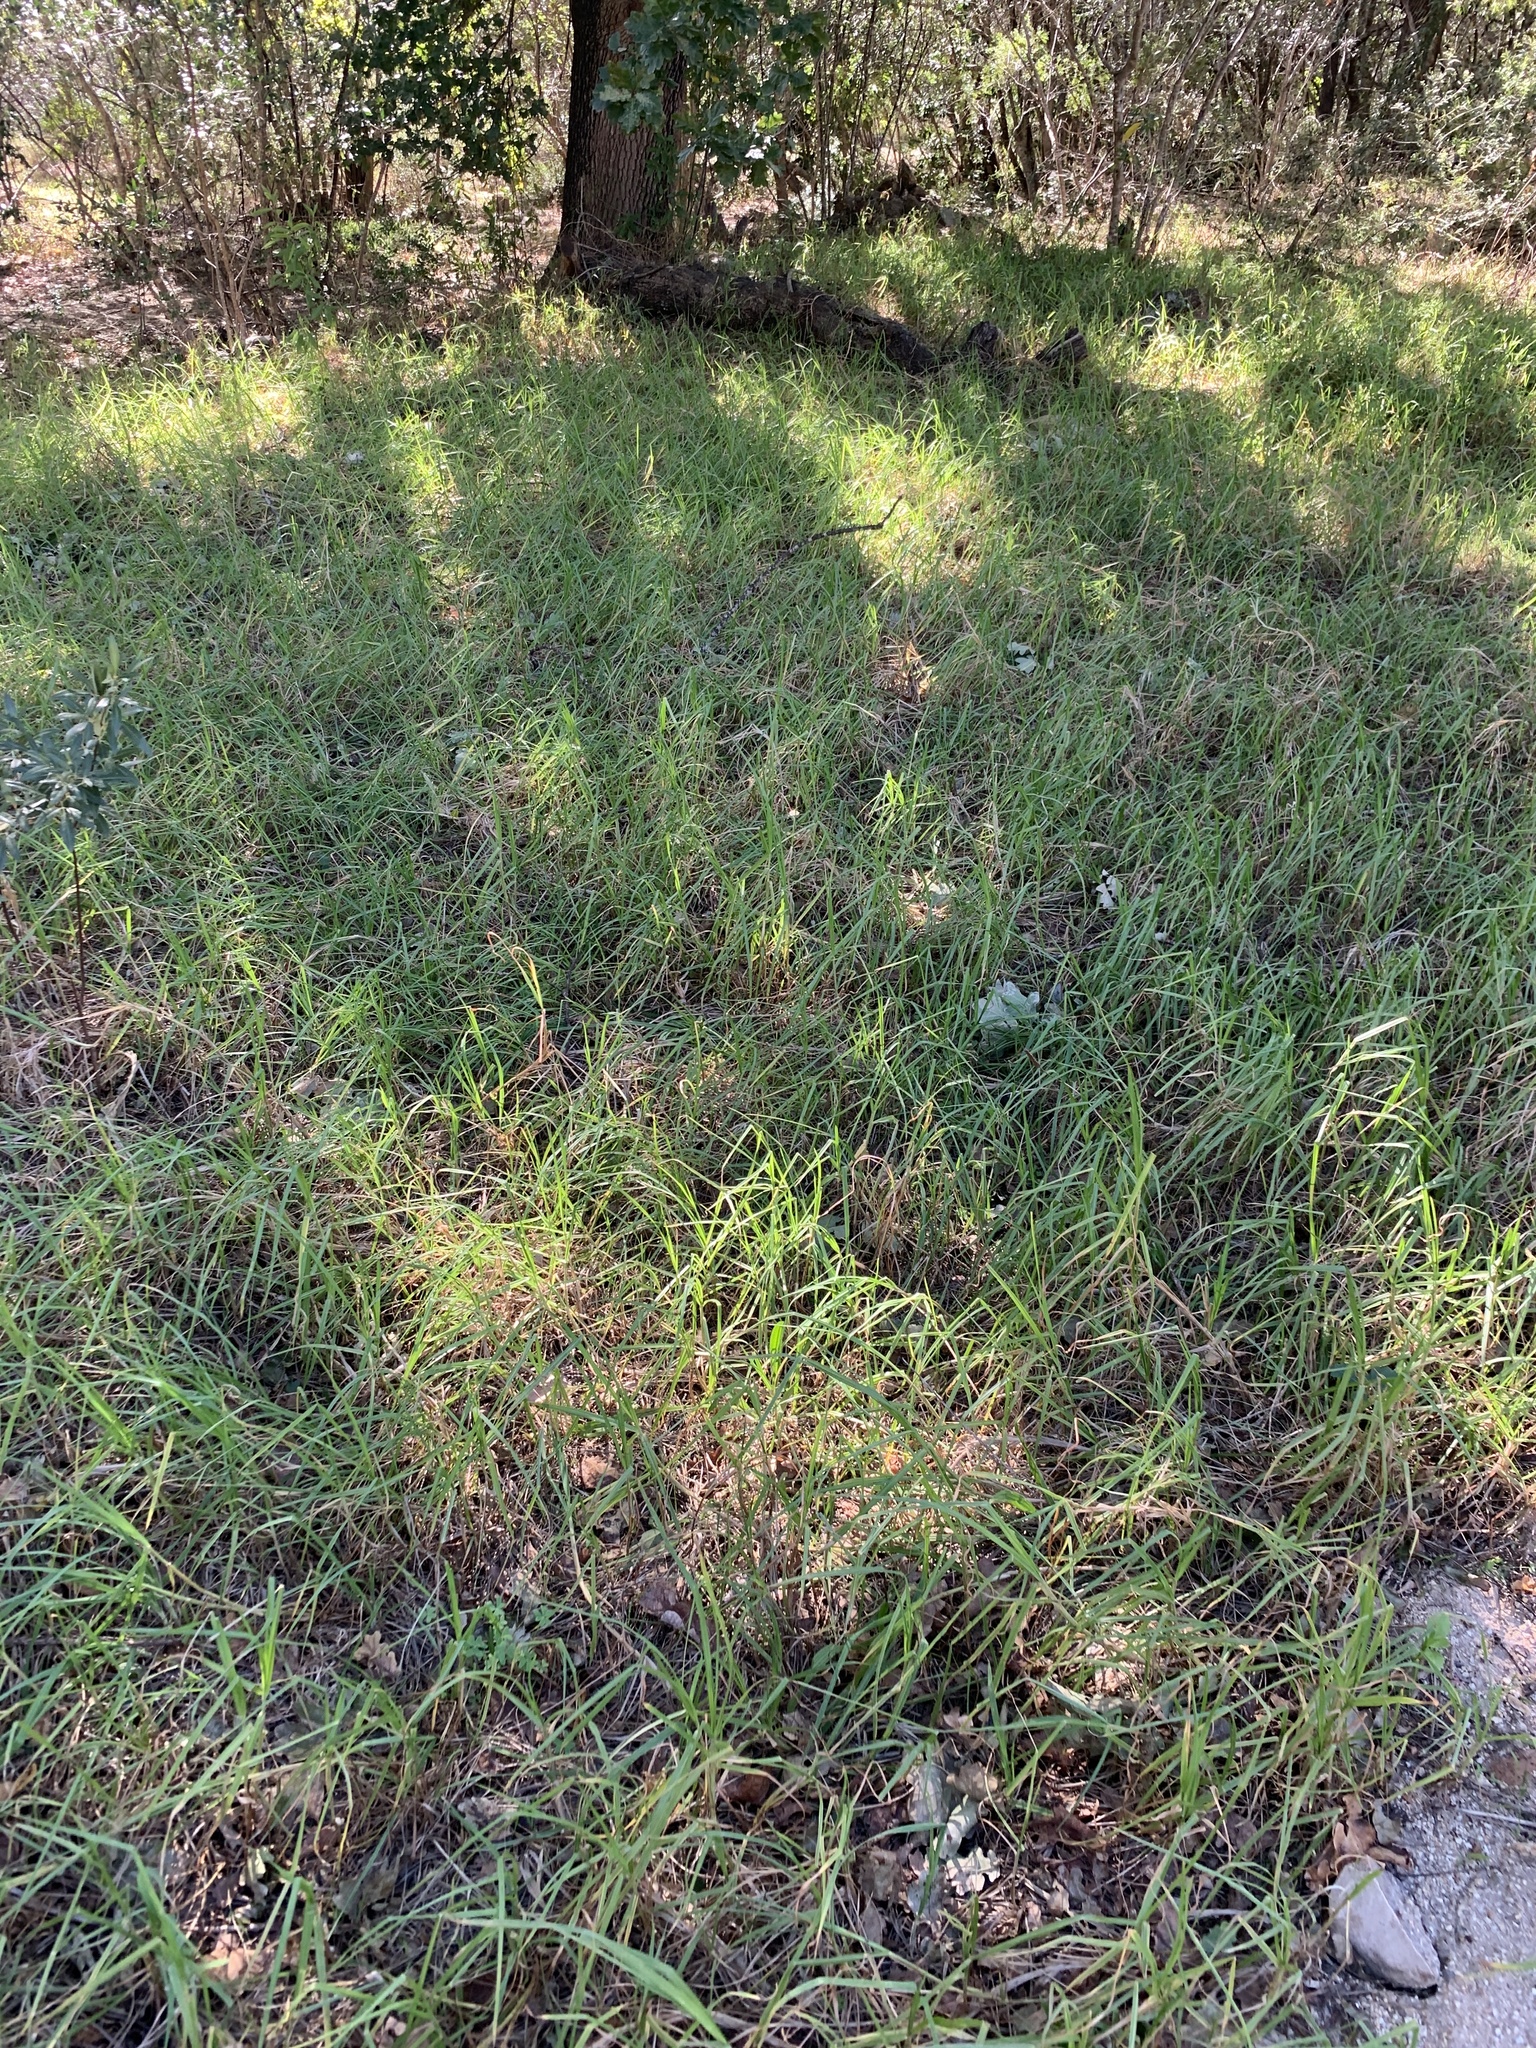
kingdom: Plantae
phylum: Tracheophyta
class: Liliopsida
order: Poales
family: Poaceae
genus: Cenchrus
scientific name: Cenchrus clandestinus
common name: Kikuyugrass
